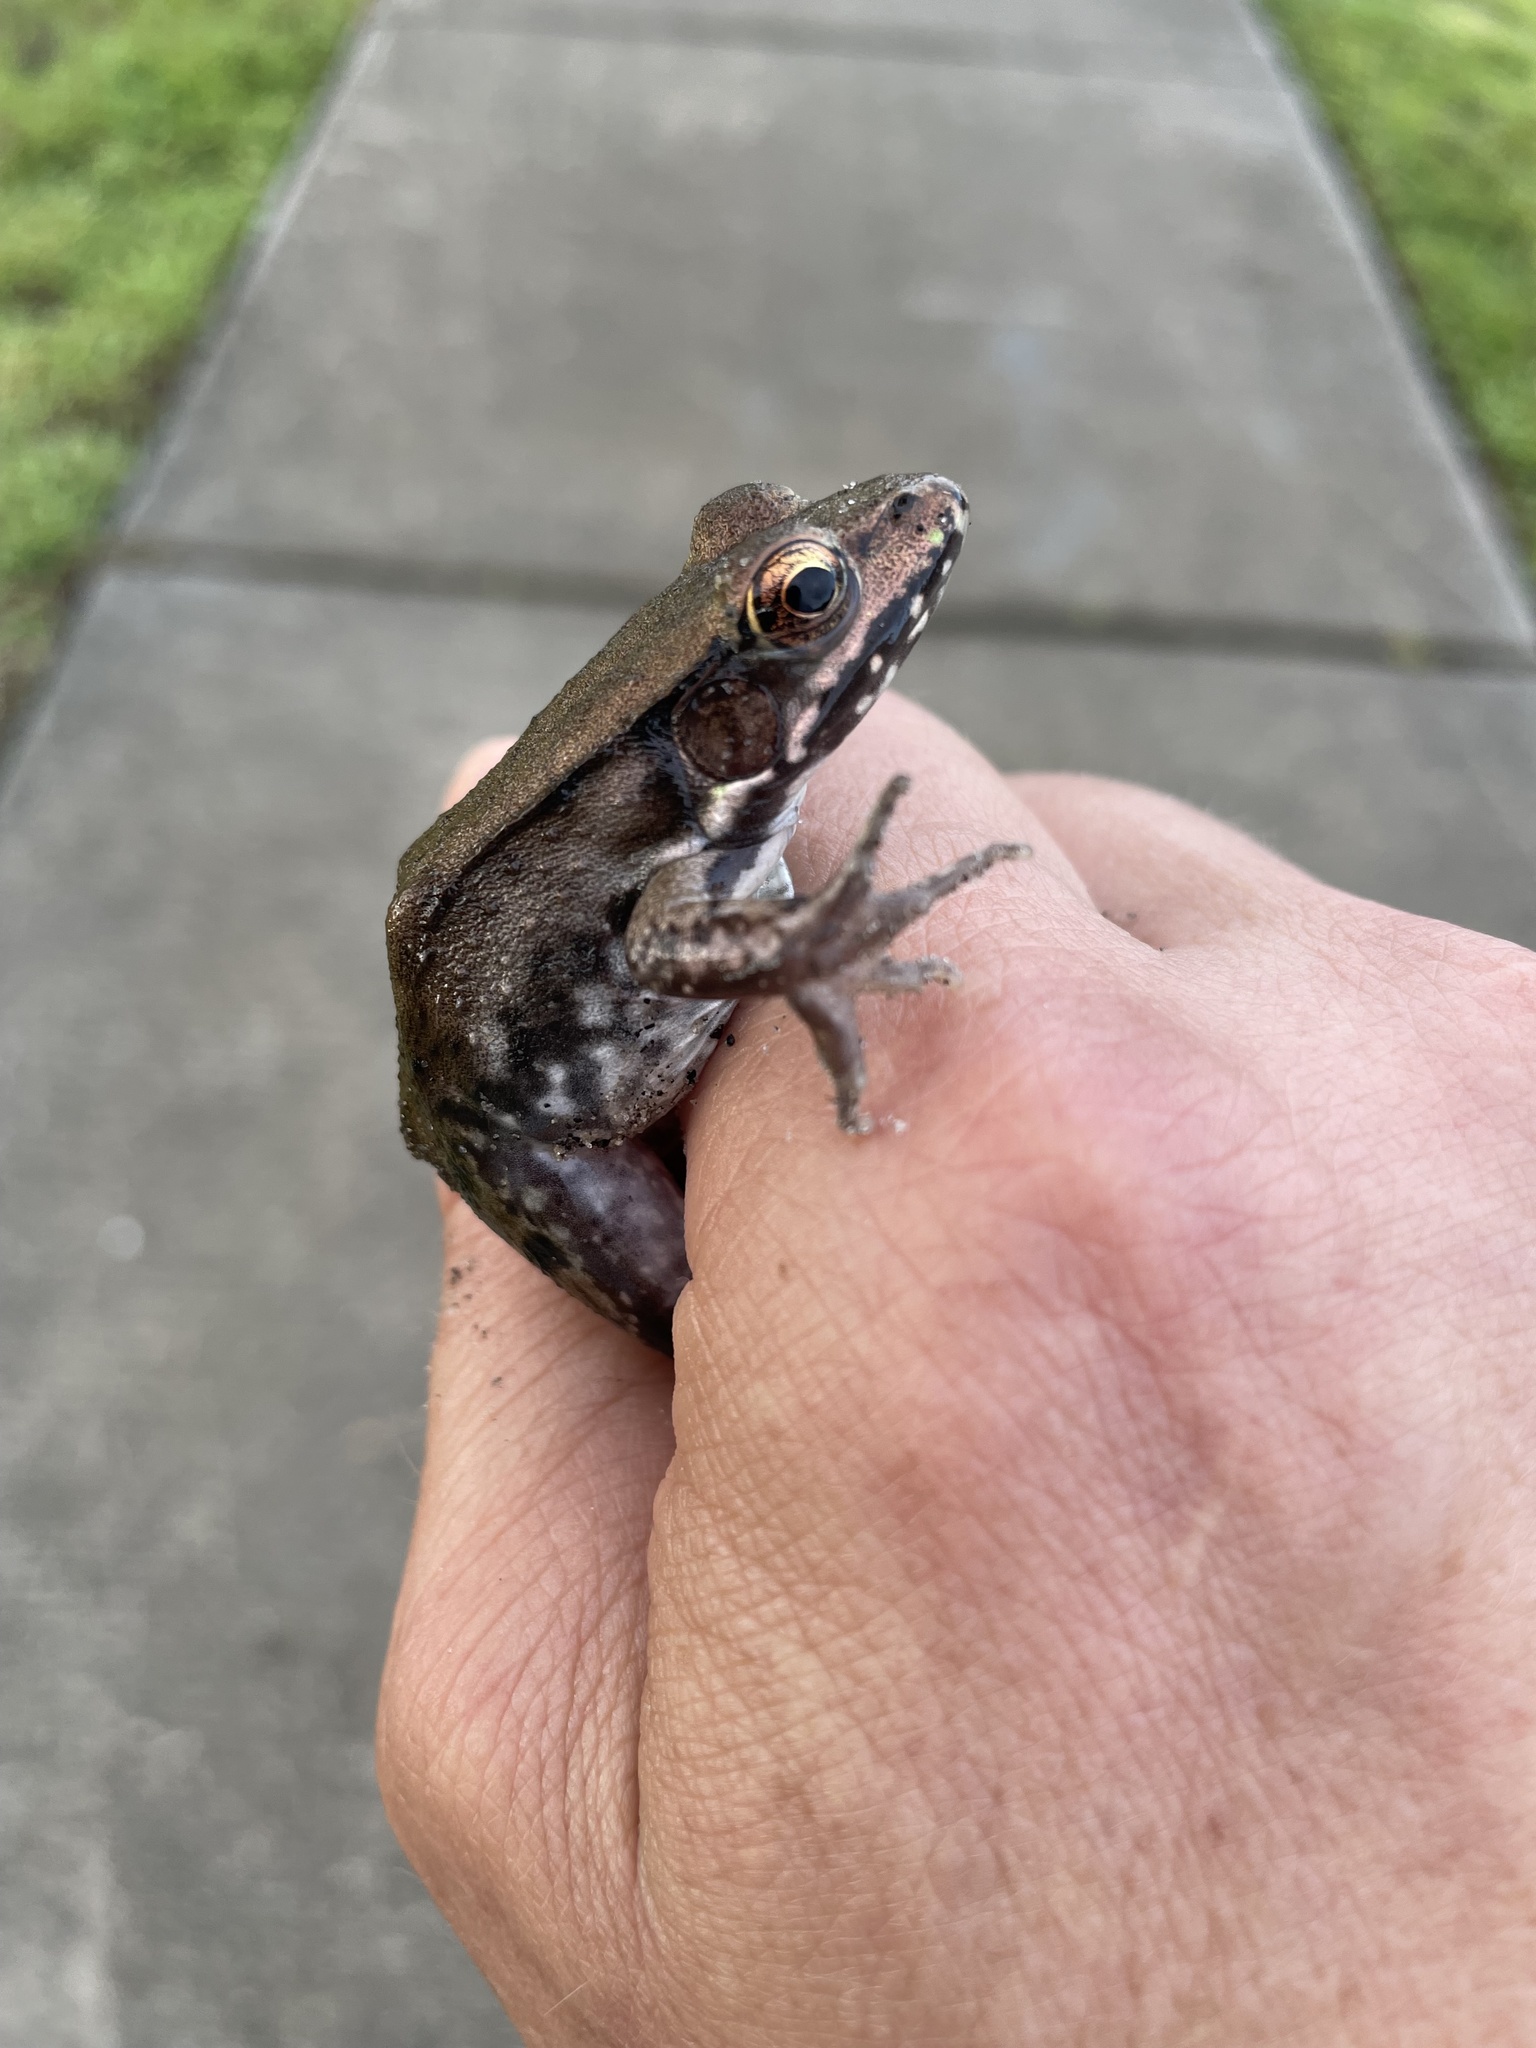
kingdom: Animalia
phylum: Chordata
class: Amphibia
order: Anura
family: Ranidae
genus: Lithobates
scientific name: Lithobates clamitans
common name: Green frog
